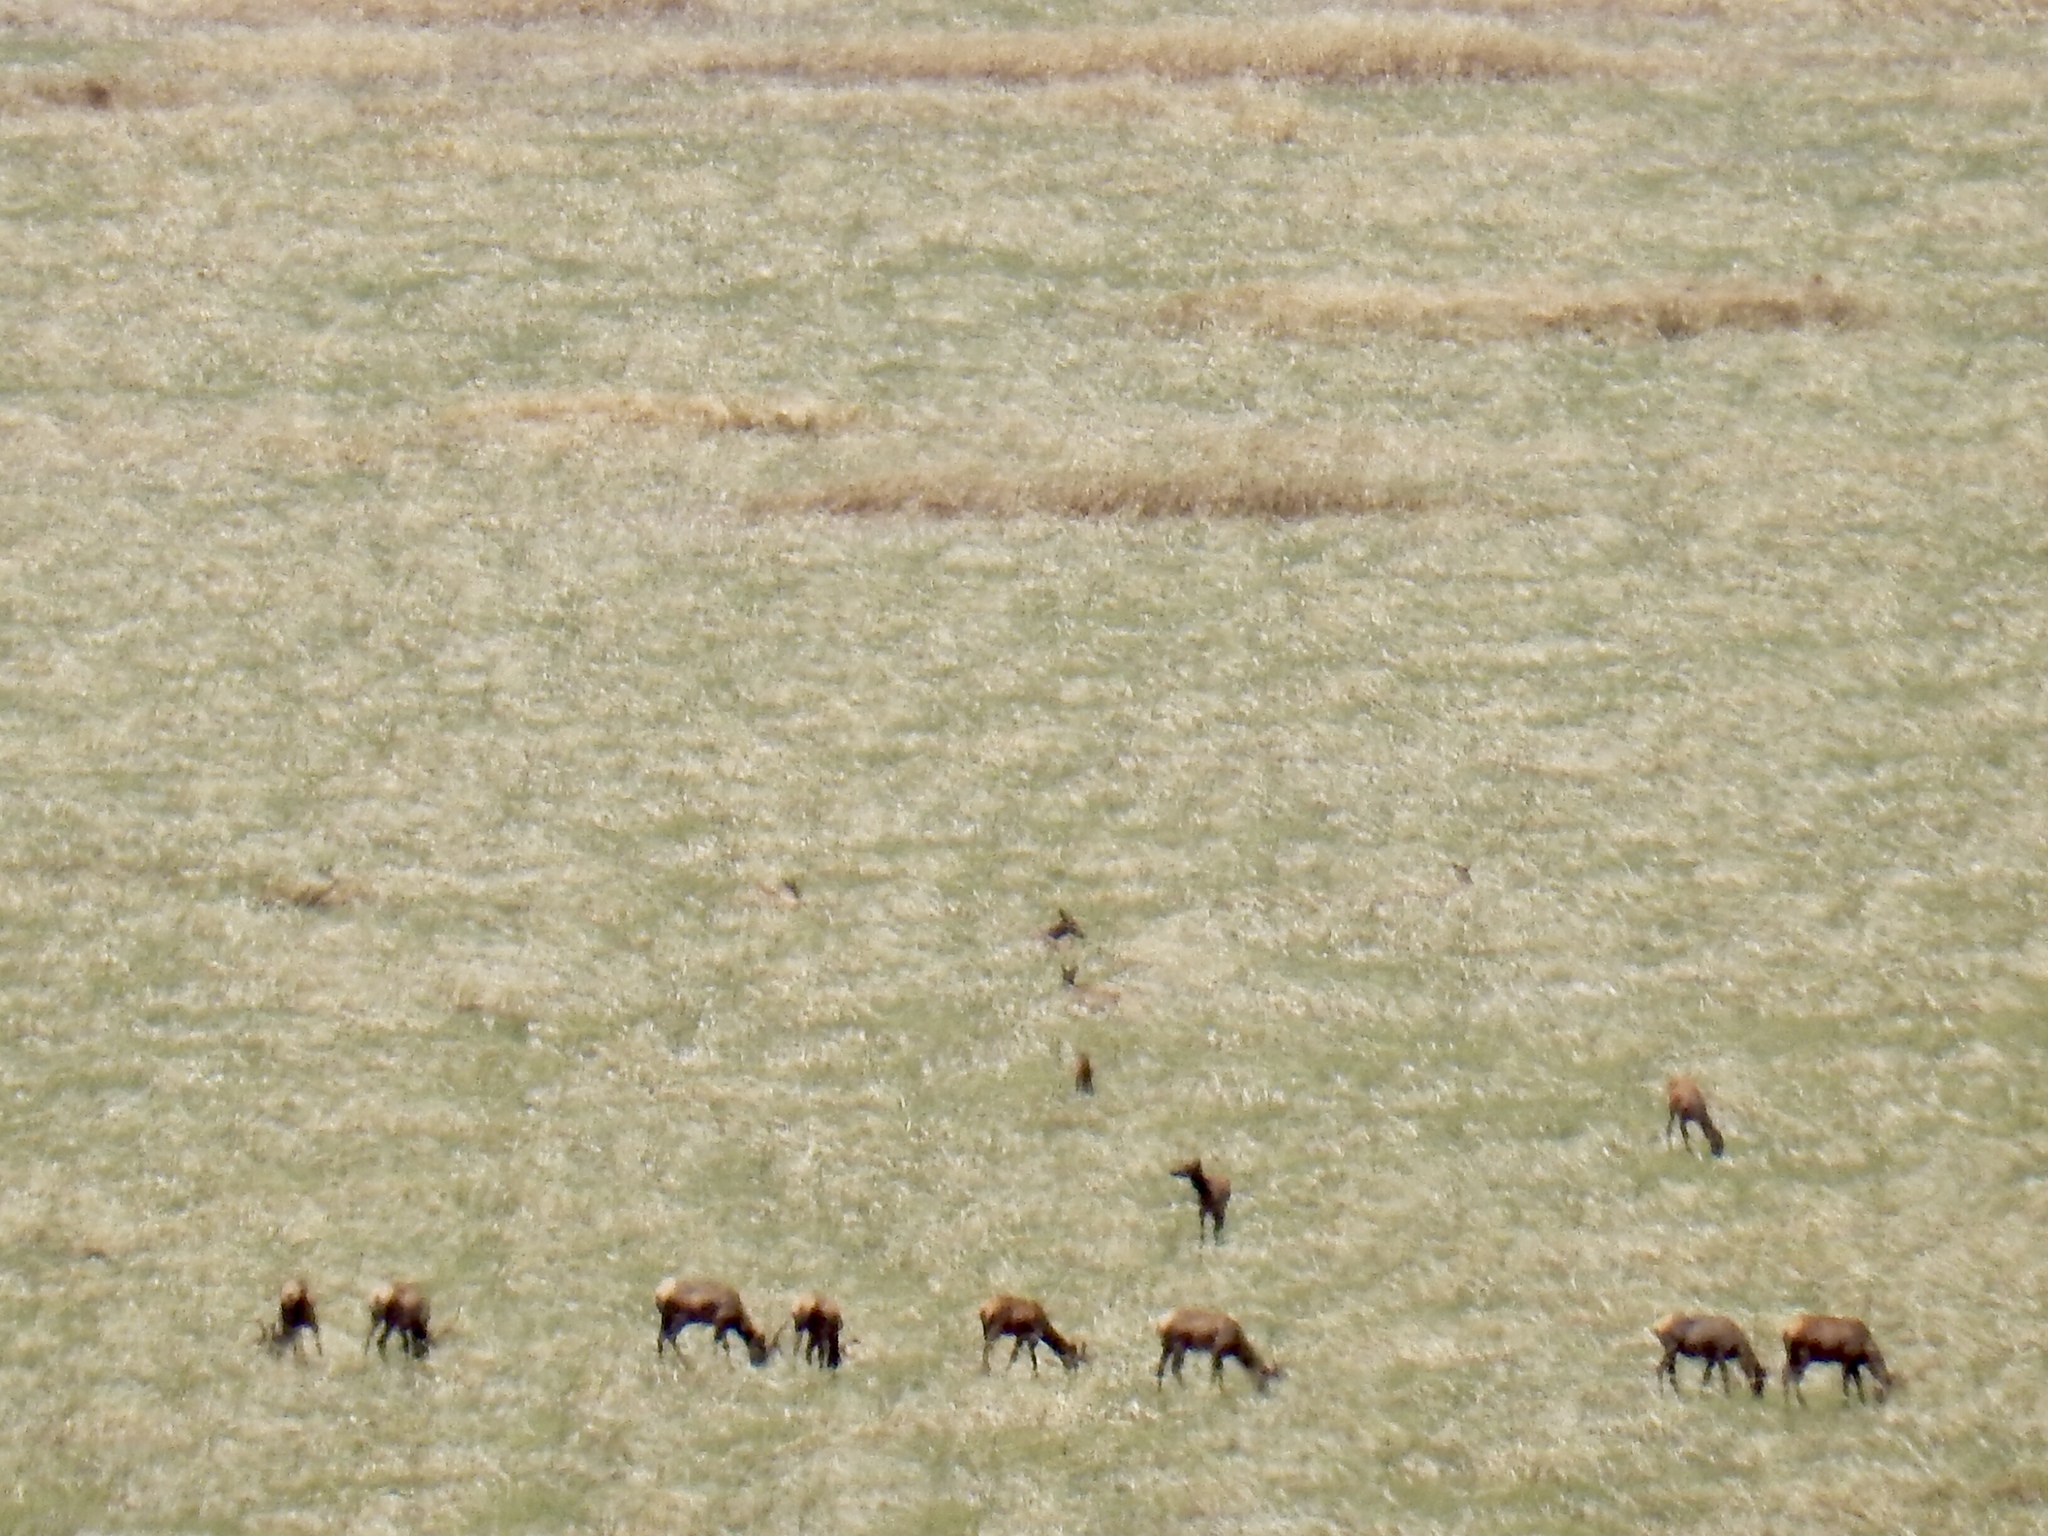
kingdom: Animalia
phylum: Chordata
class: Mammalia
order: Artiodactyla
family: Cervidae
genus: Cervus
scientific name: Cervus elaphus
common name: Red deer
